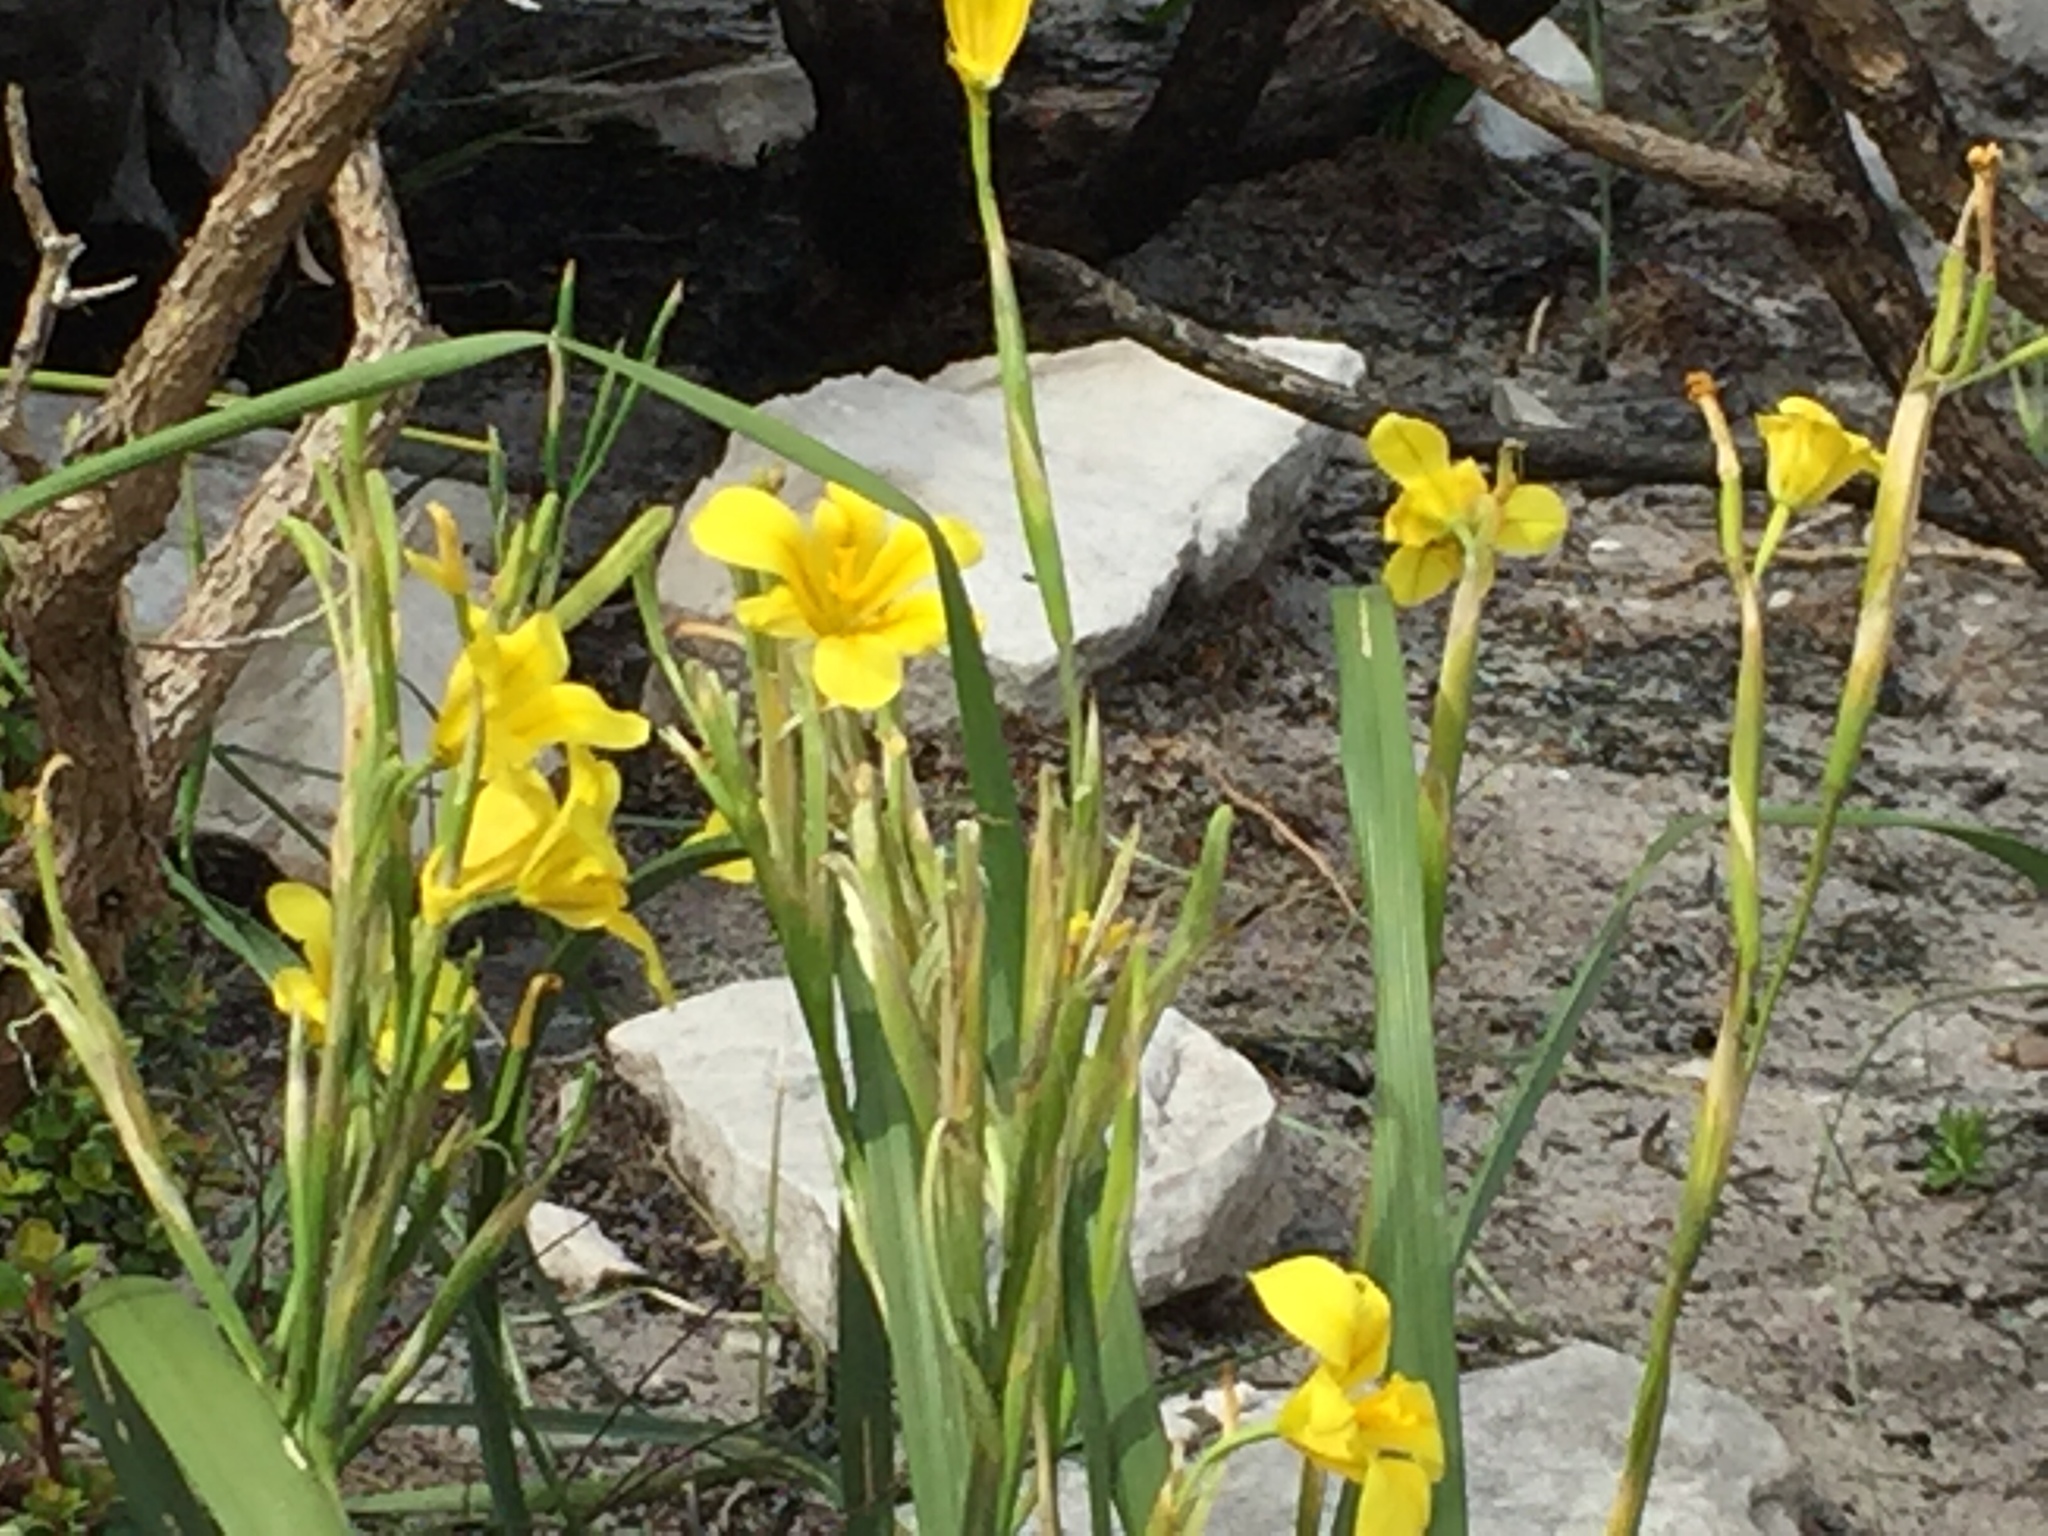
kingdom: Plantae
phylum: Tracheophyta
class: Liliopsida
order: Asparagales
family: Iridaceae
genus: Moraea
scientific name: Moraea ochroleuca
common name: Red tulp
